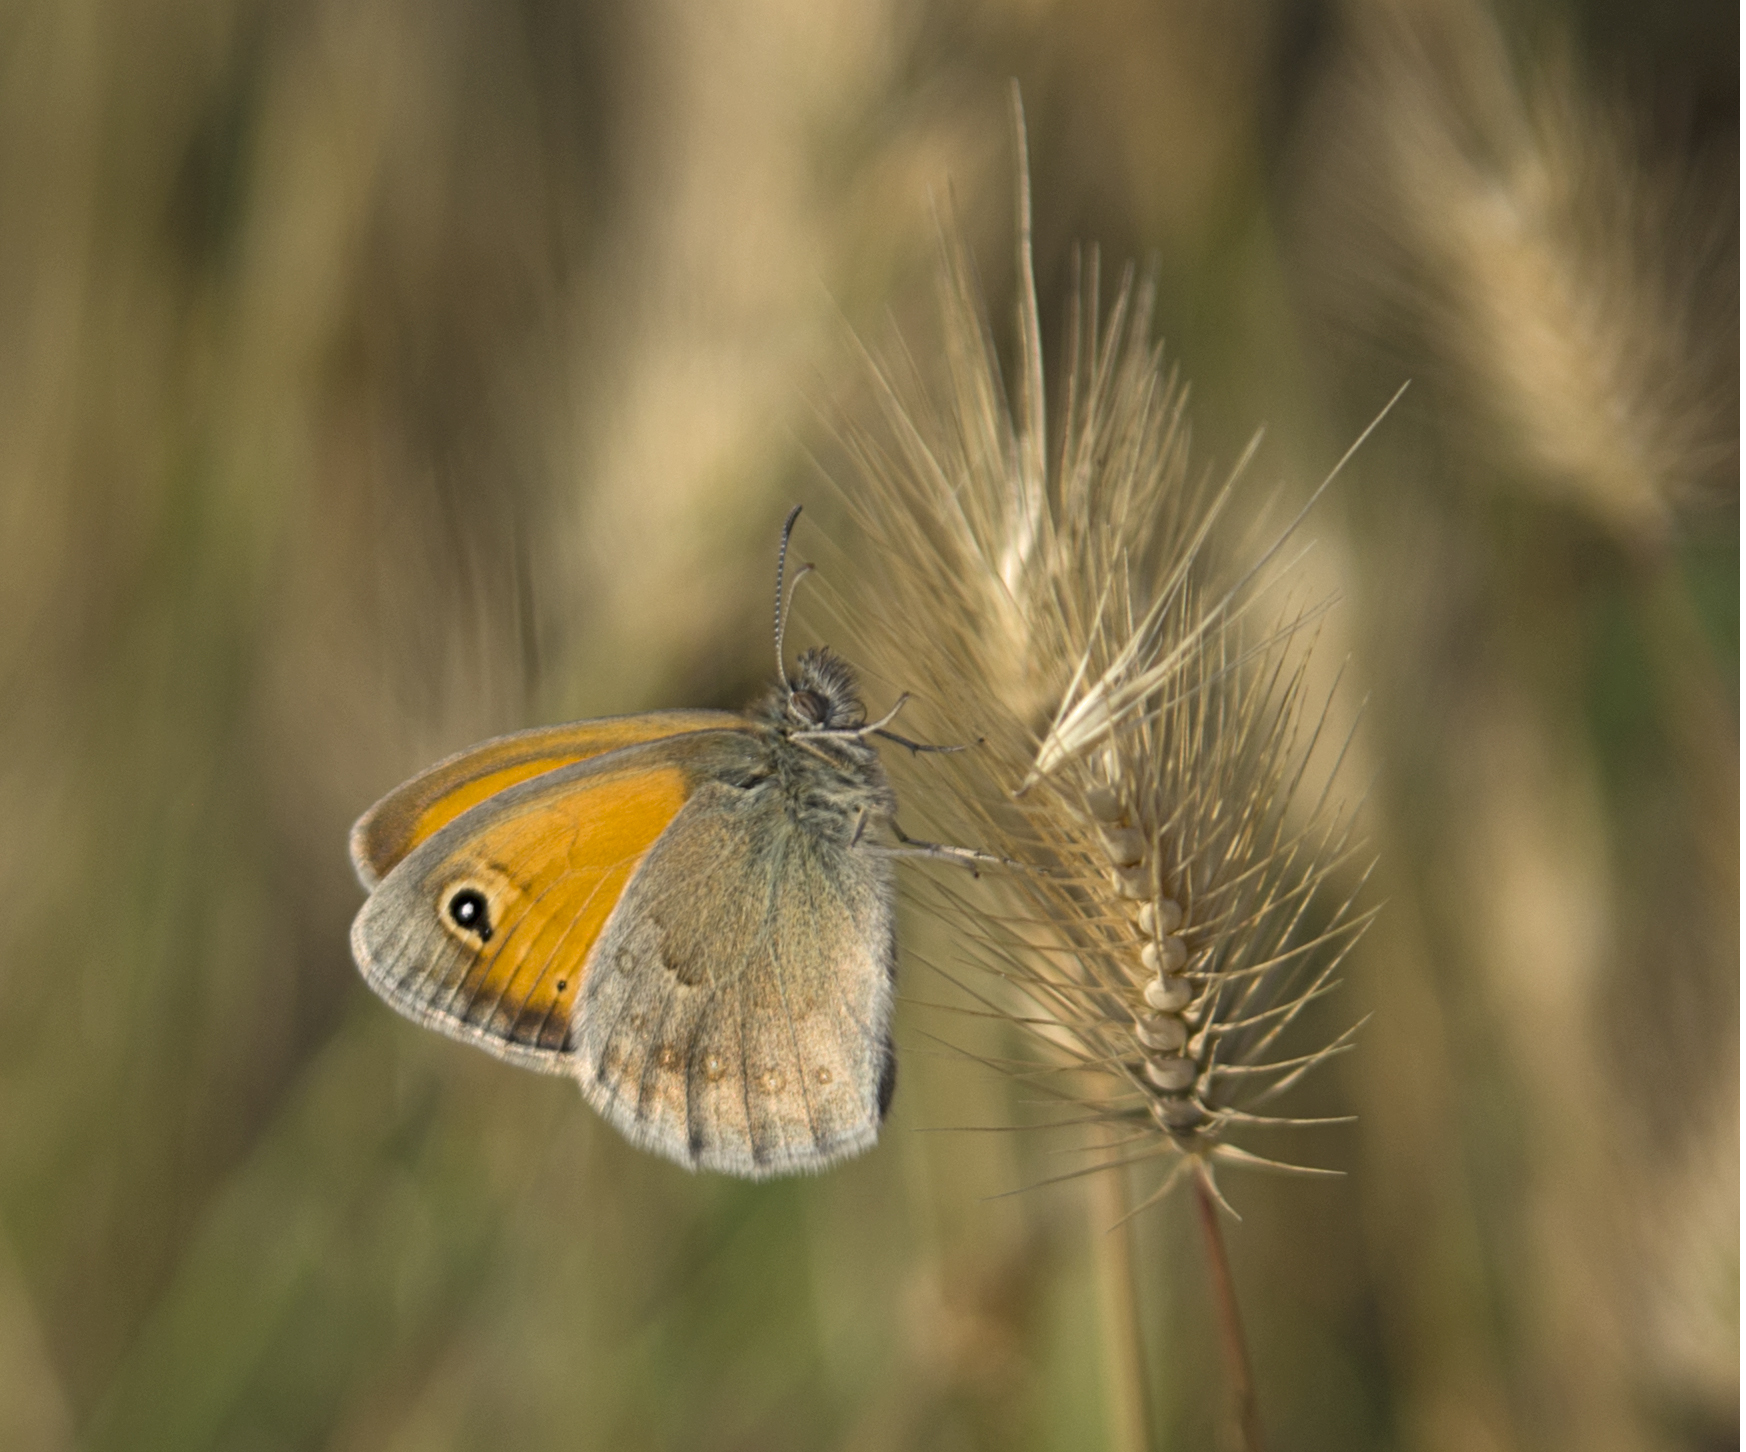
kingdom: Animalia
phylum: Arthropoda
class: Insecta
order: Lepidoptera
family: Nymphalidae
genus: Coenonympha
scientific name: Coenonympha pamphilus
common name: Small heath
